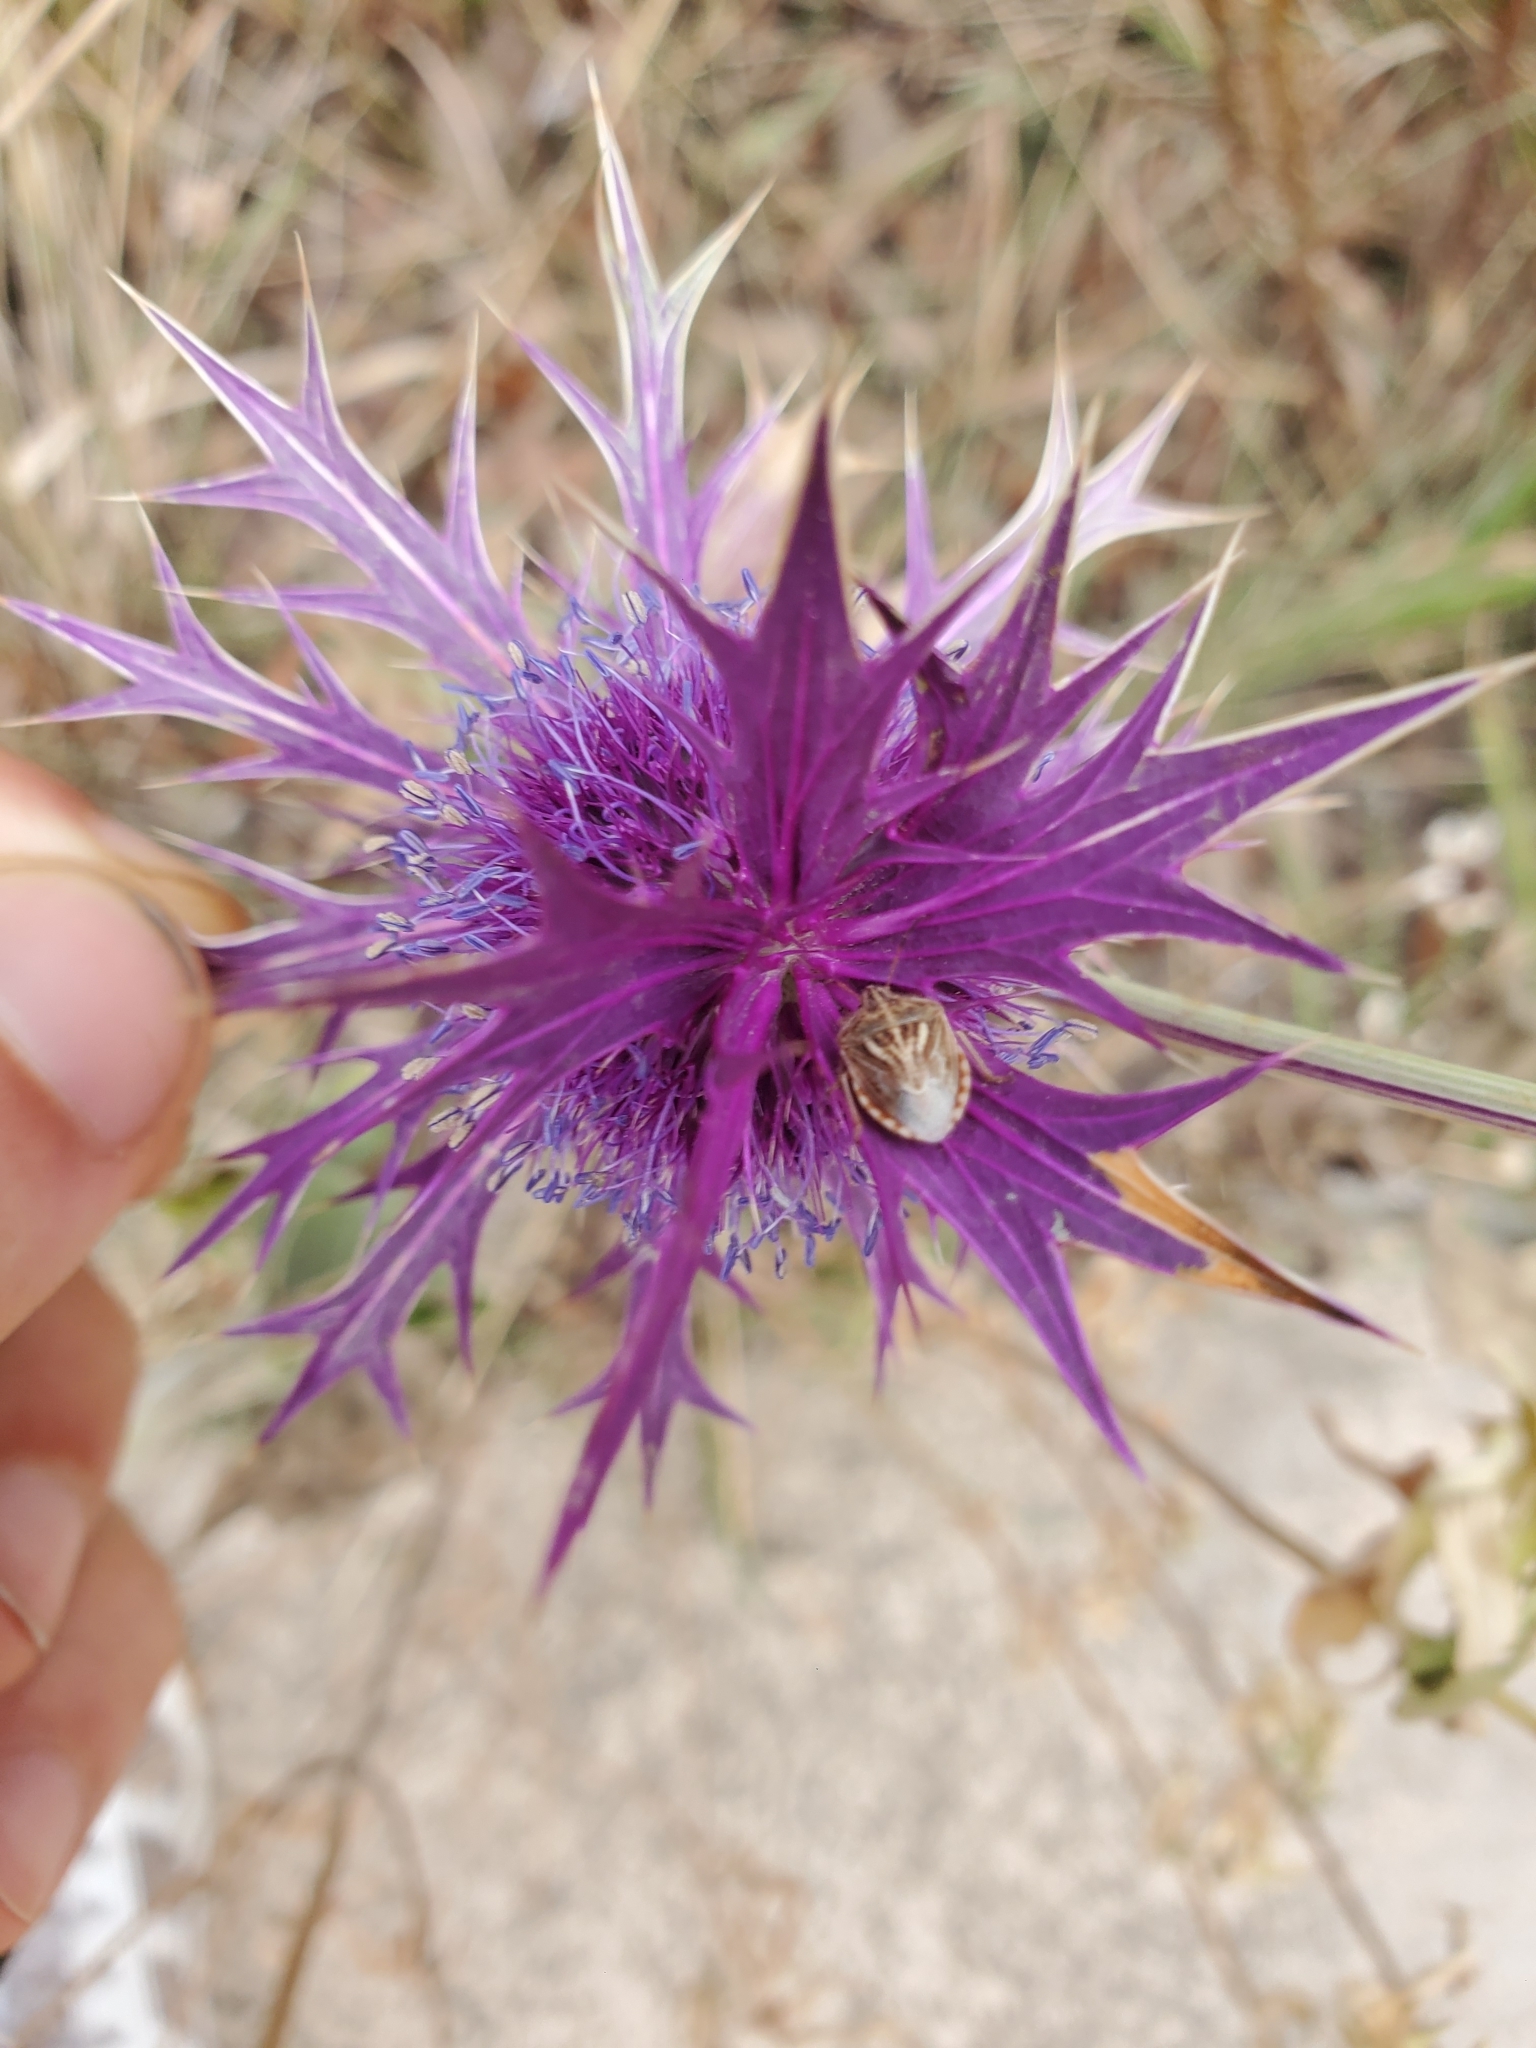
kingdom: Animalia
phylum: Arthropoda
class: Insecta
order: Hemiptera
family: Pentatomidae
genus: Trichopepla
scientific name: Trichopepla semivittata
